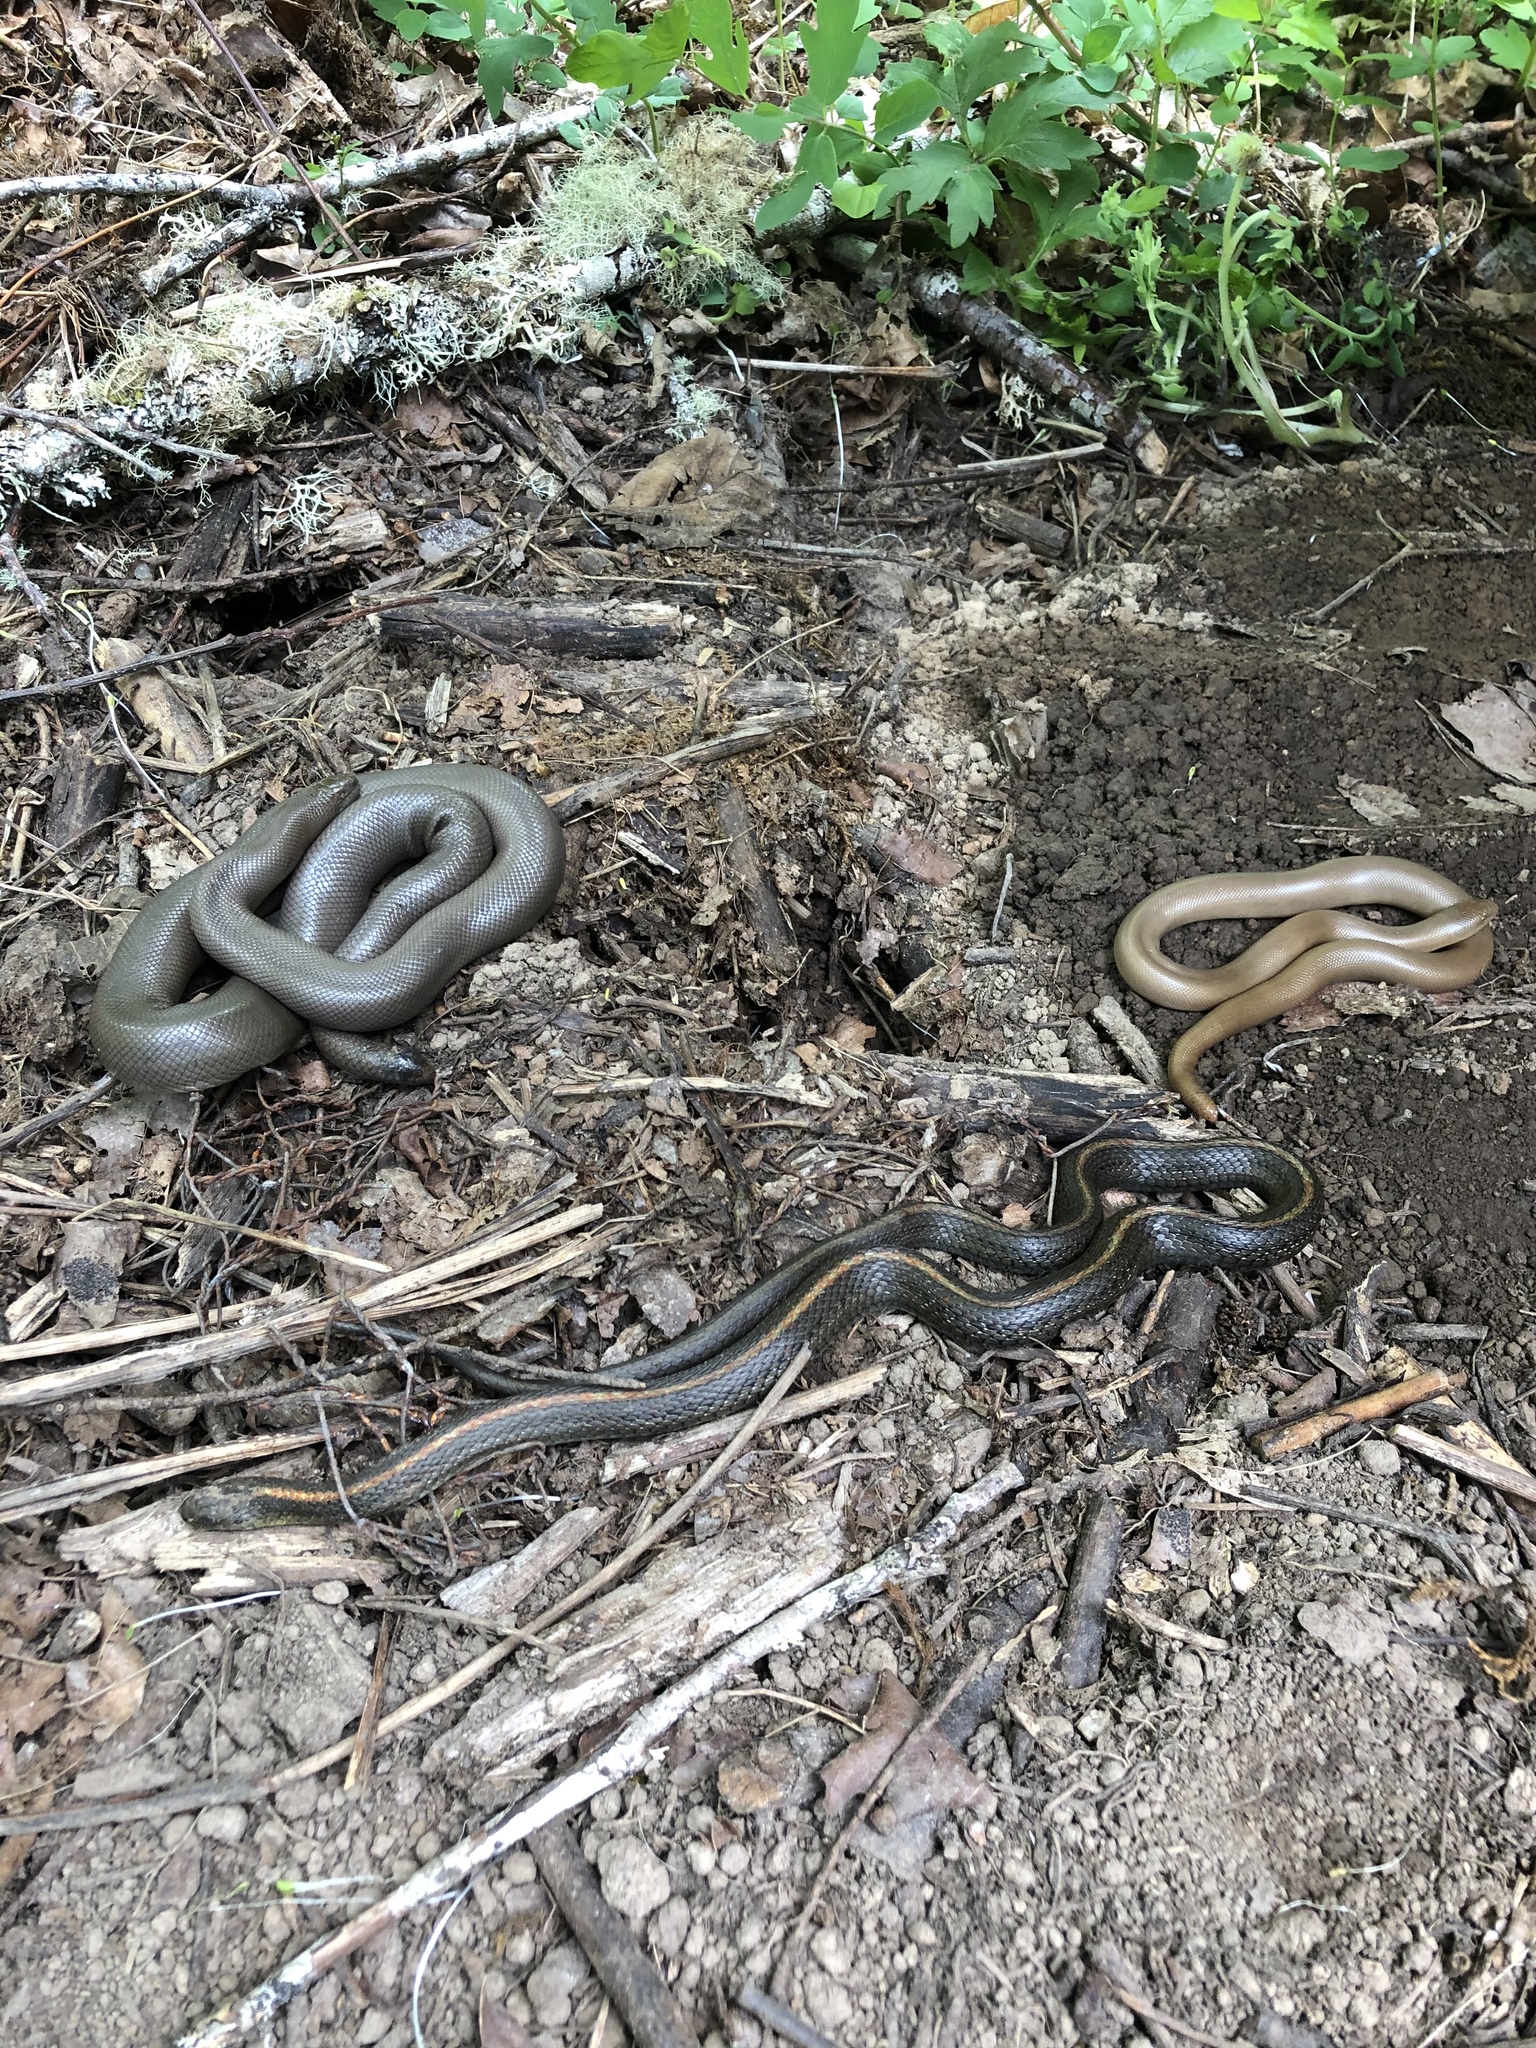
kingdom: Animalia
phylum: Chordata
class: Squamata
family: Boidae
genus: Charina
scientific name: Charina bottae
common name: Northern rubber boa
